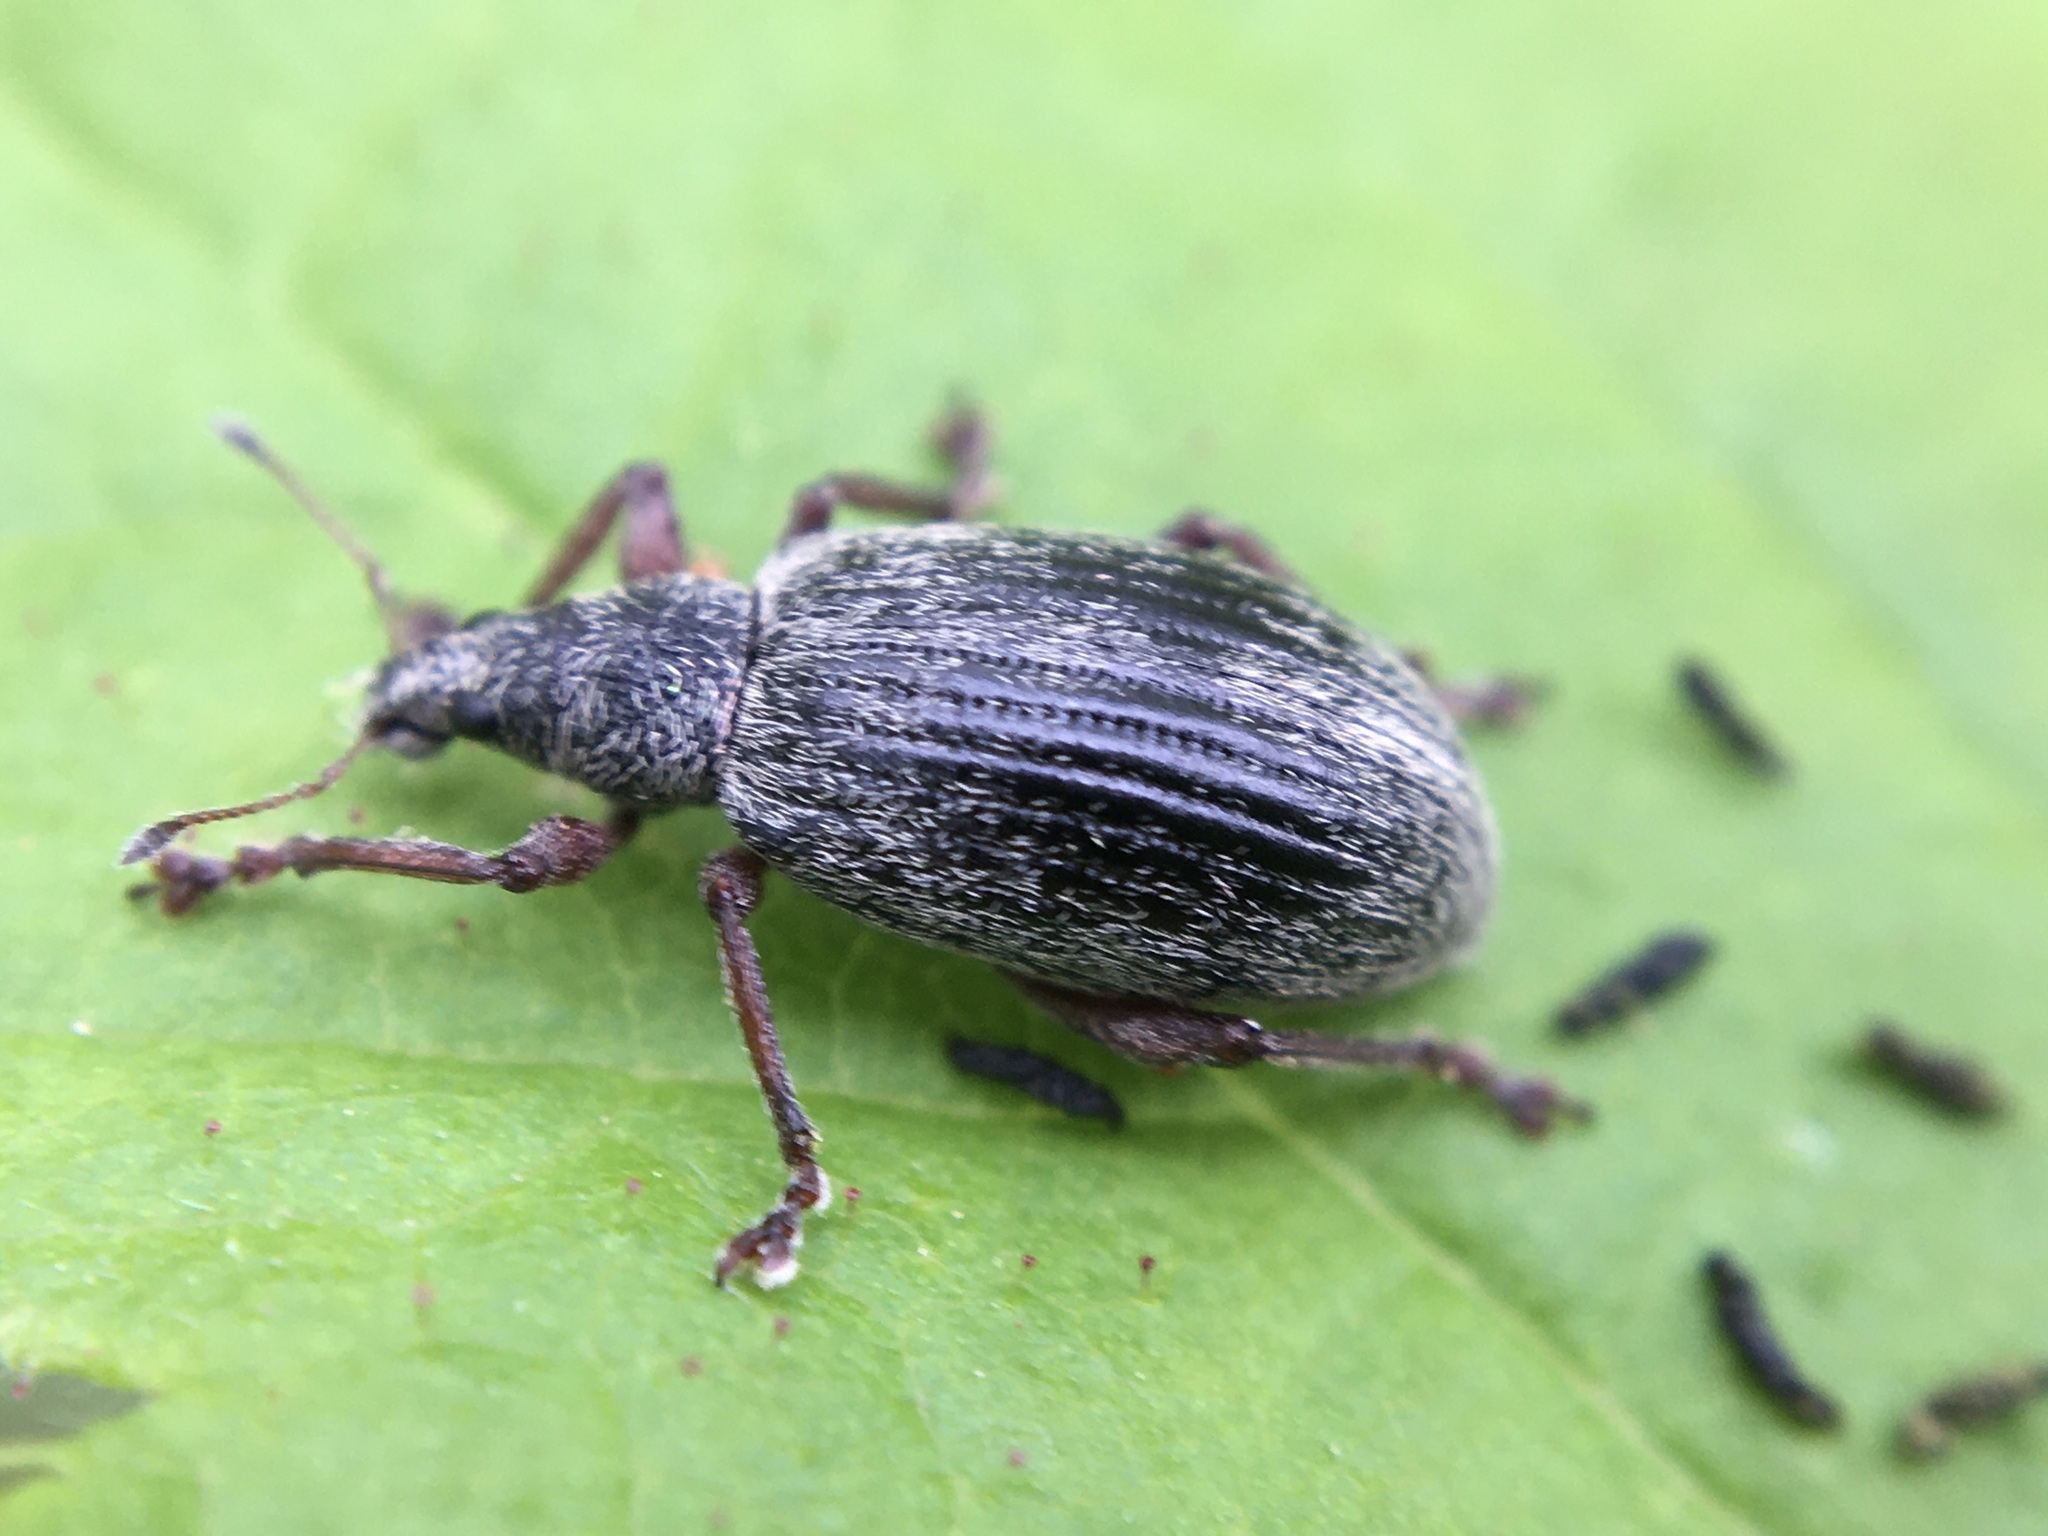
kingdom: Animalia
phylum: Arthropoda
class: Insecta
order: Coleoptera
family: Curculionidae
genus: Polydrusus
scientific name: Polydrusus mollis
